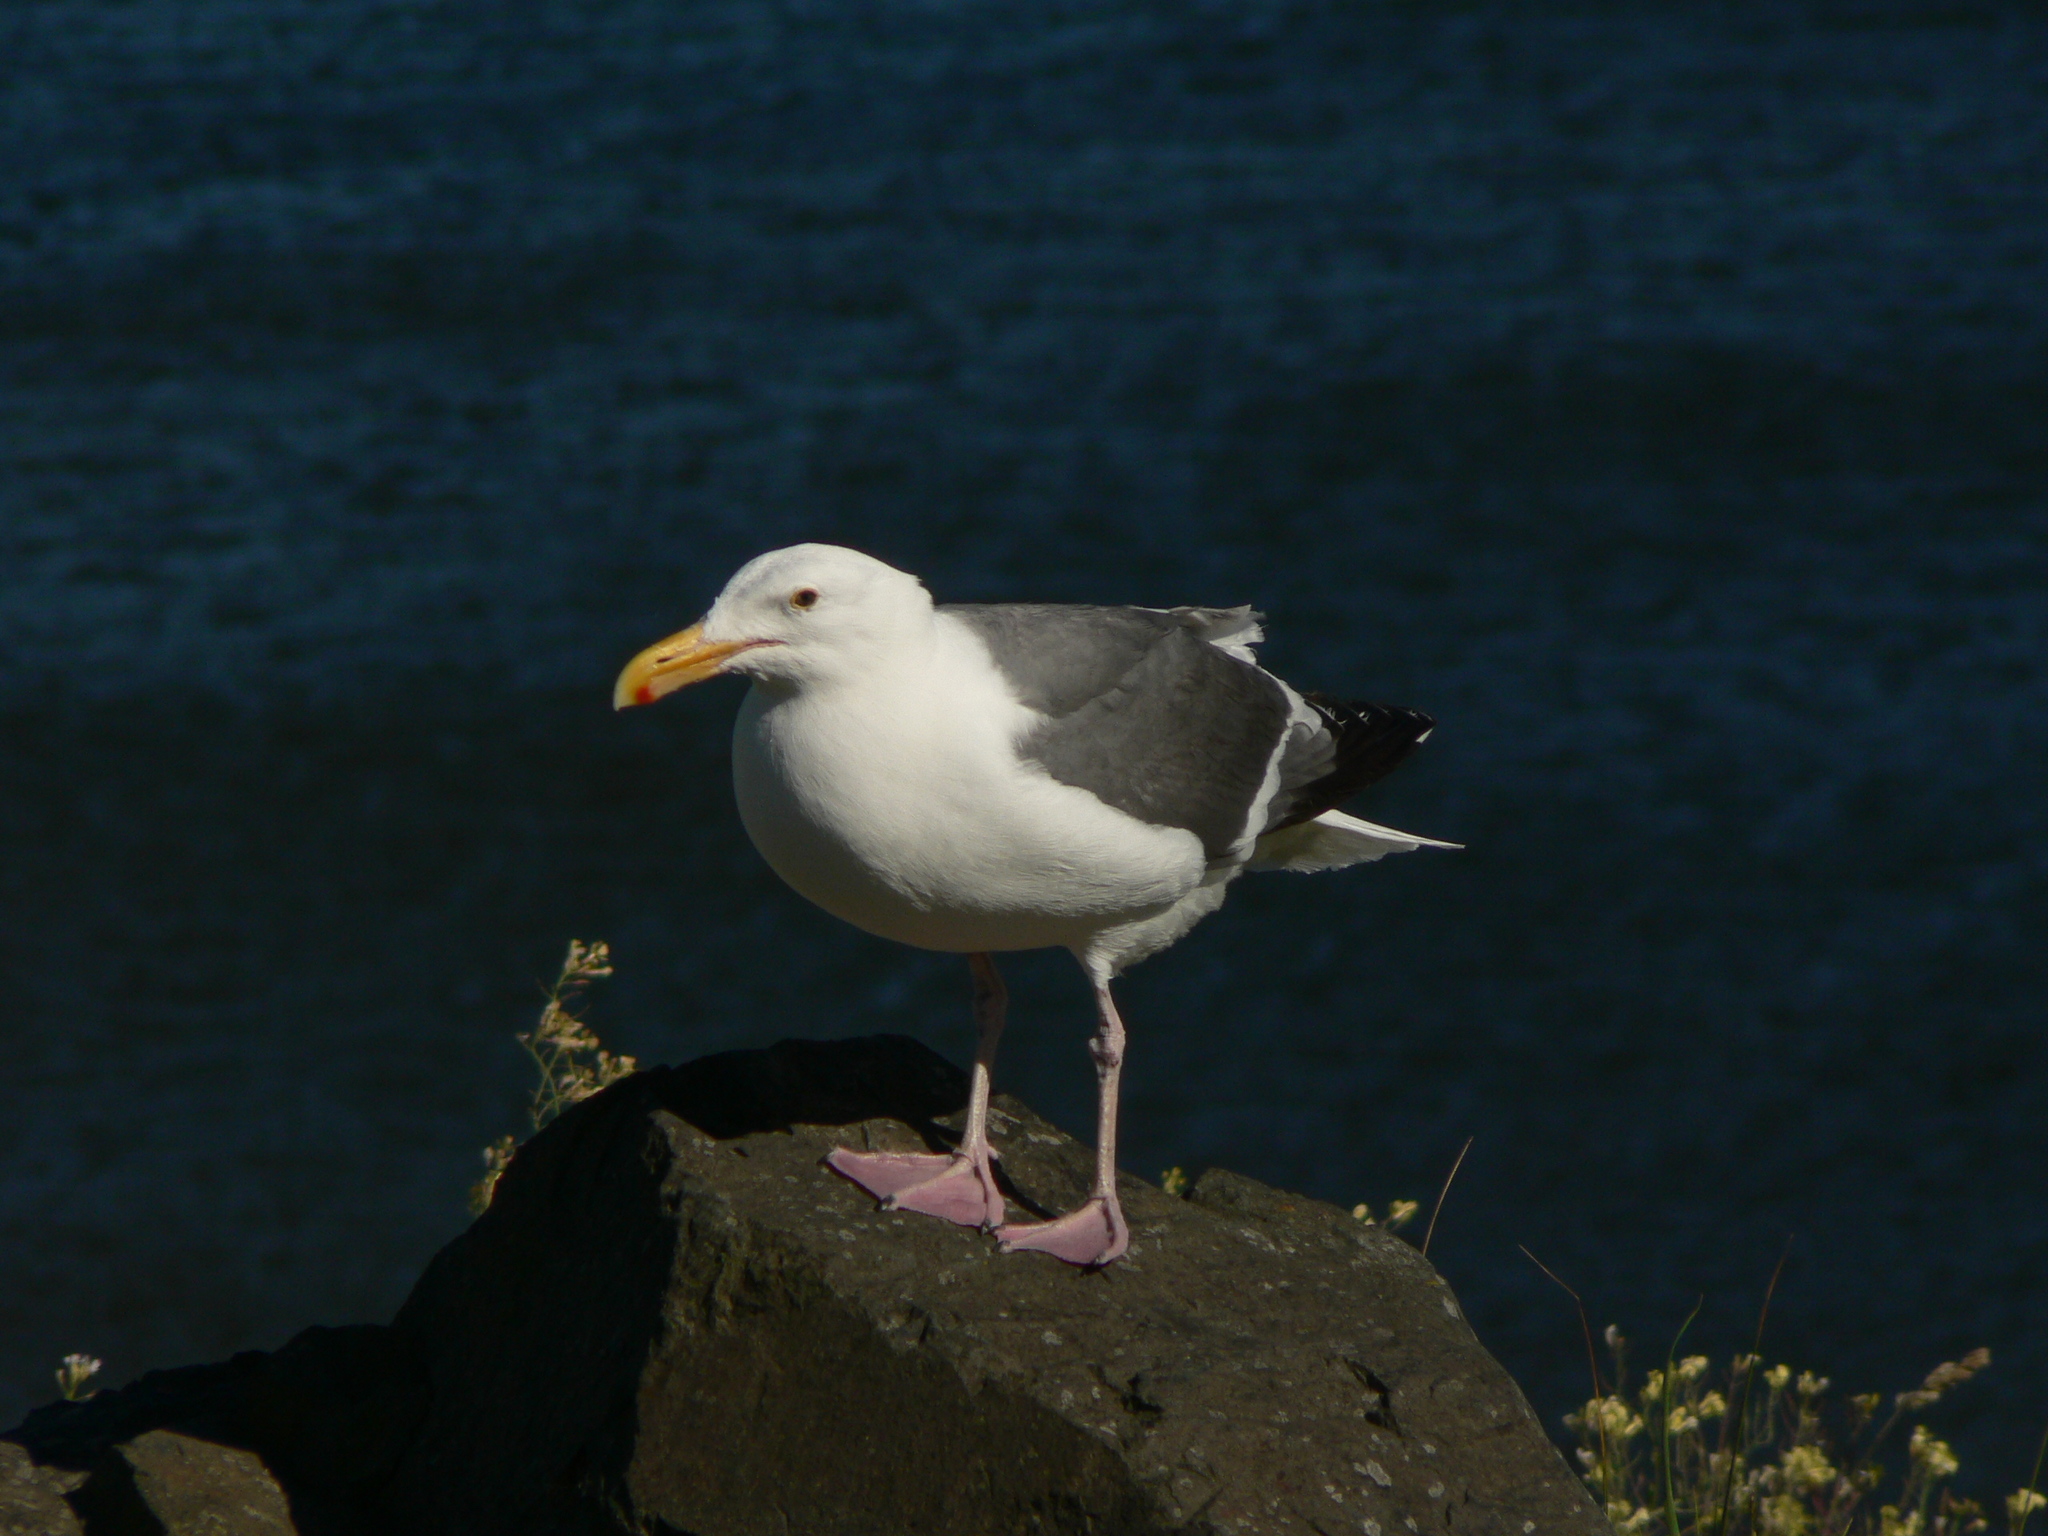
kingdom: Animalia
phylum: Chordata
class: Aves
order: Charadriiformes
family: Laridae
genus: Larus
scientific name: Larus occidentalis
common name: Western gull
